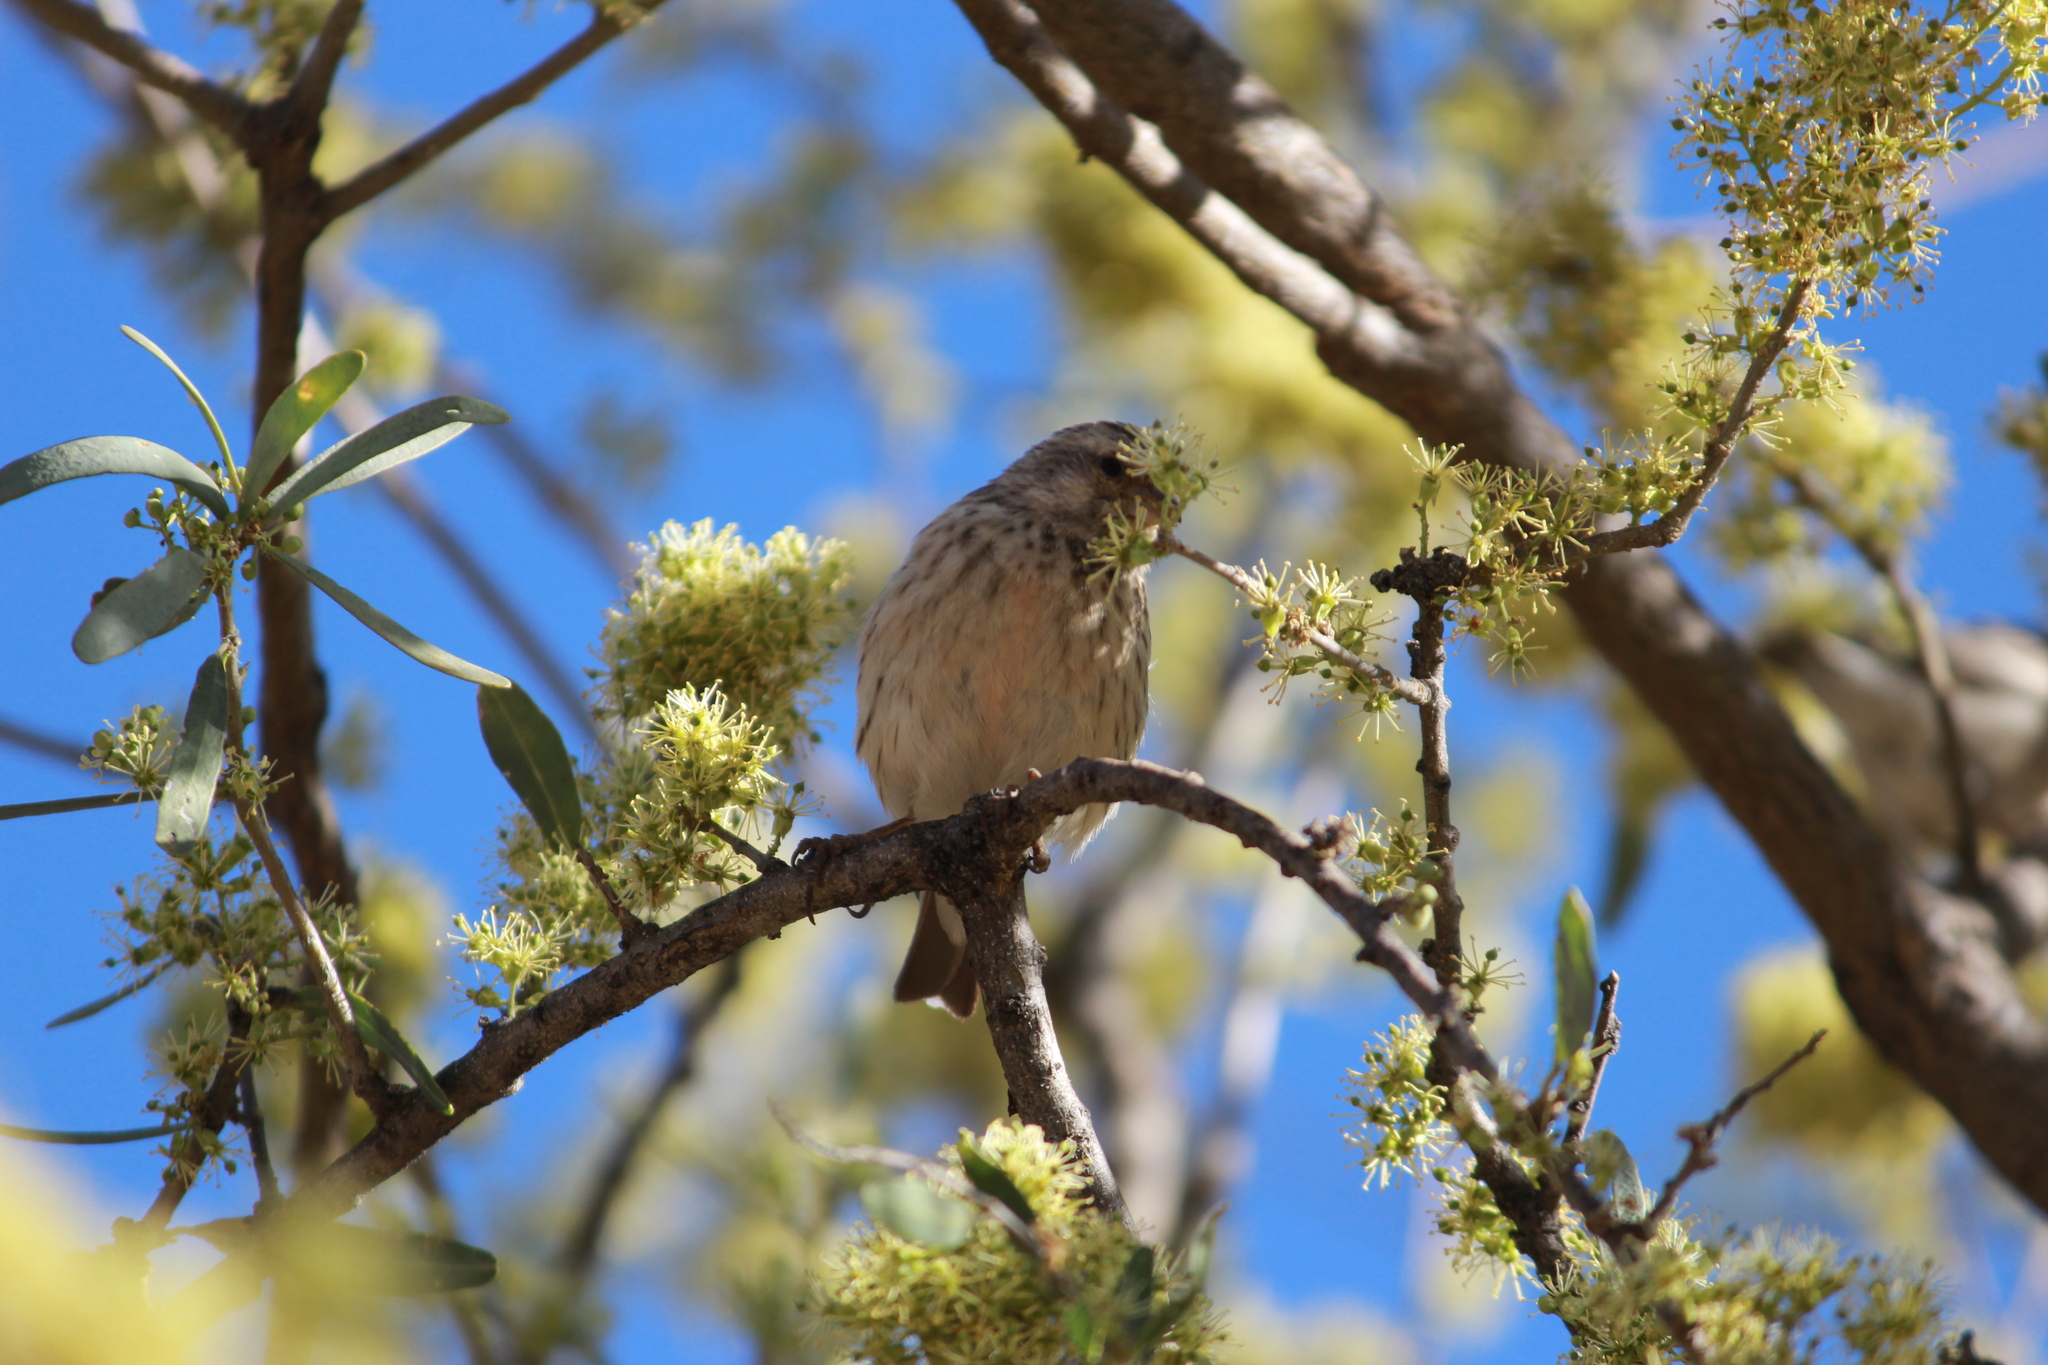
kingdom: Animalia
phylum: Chordata
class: Aves
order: Passeriformes
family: Fringillidae
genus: Crithagra
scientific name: Crithagra atrogularis
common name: Black-throated canary
